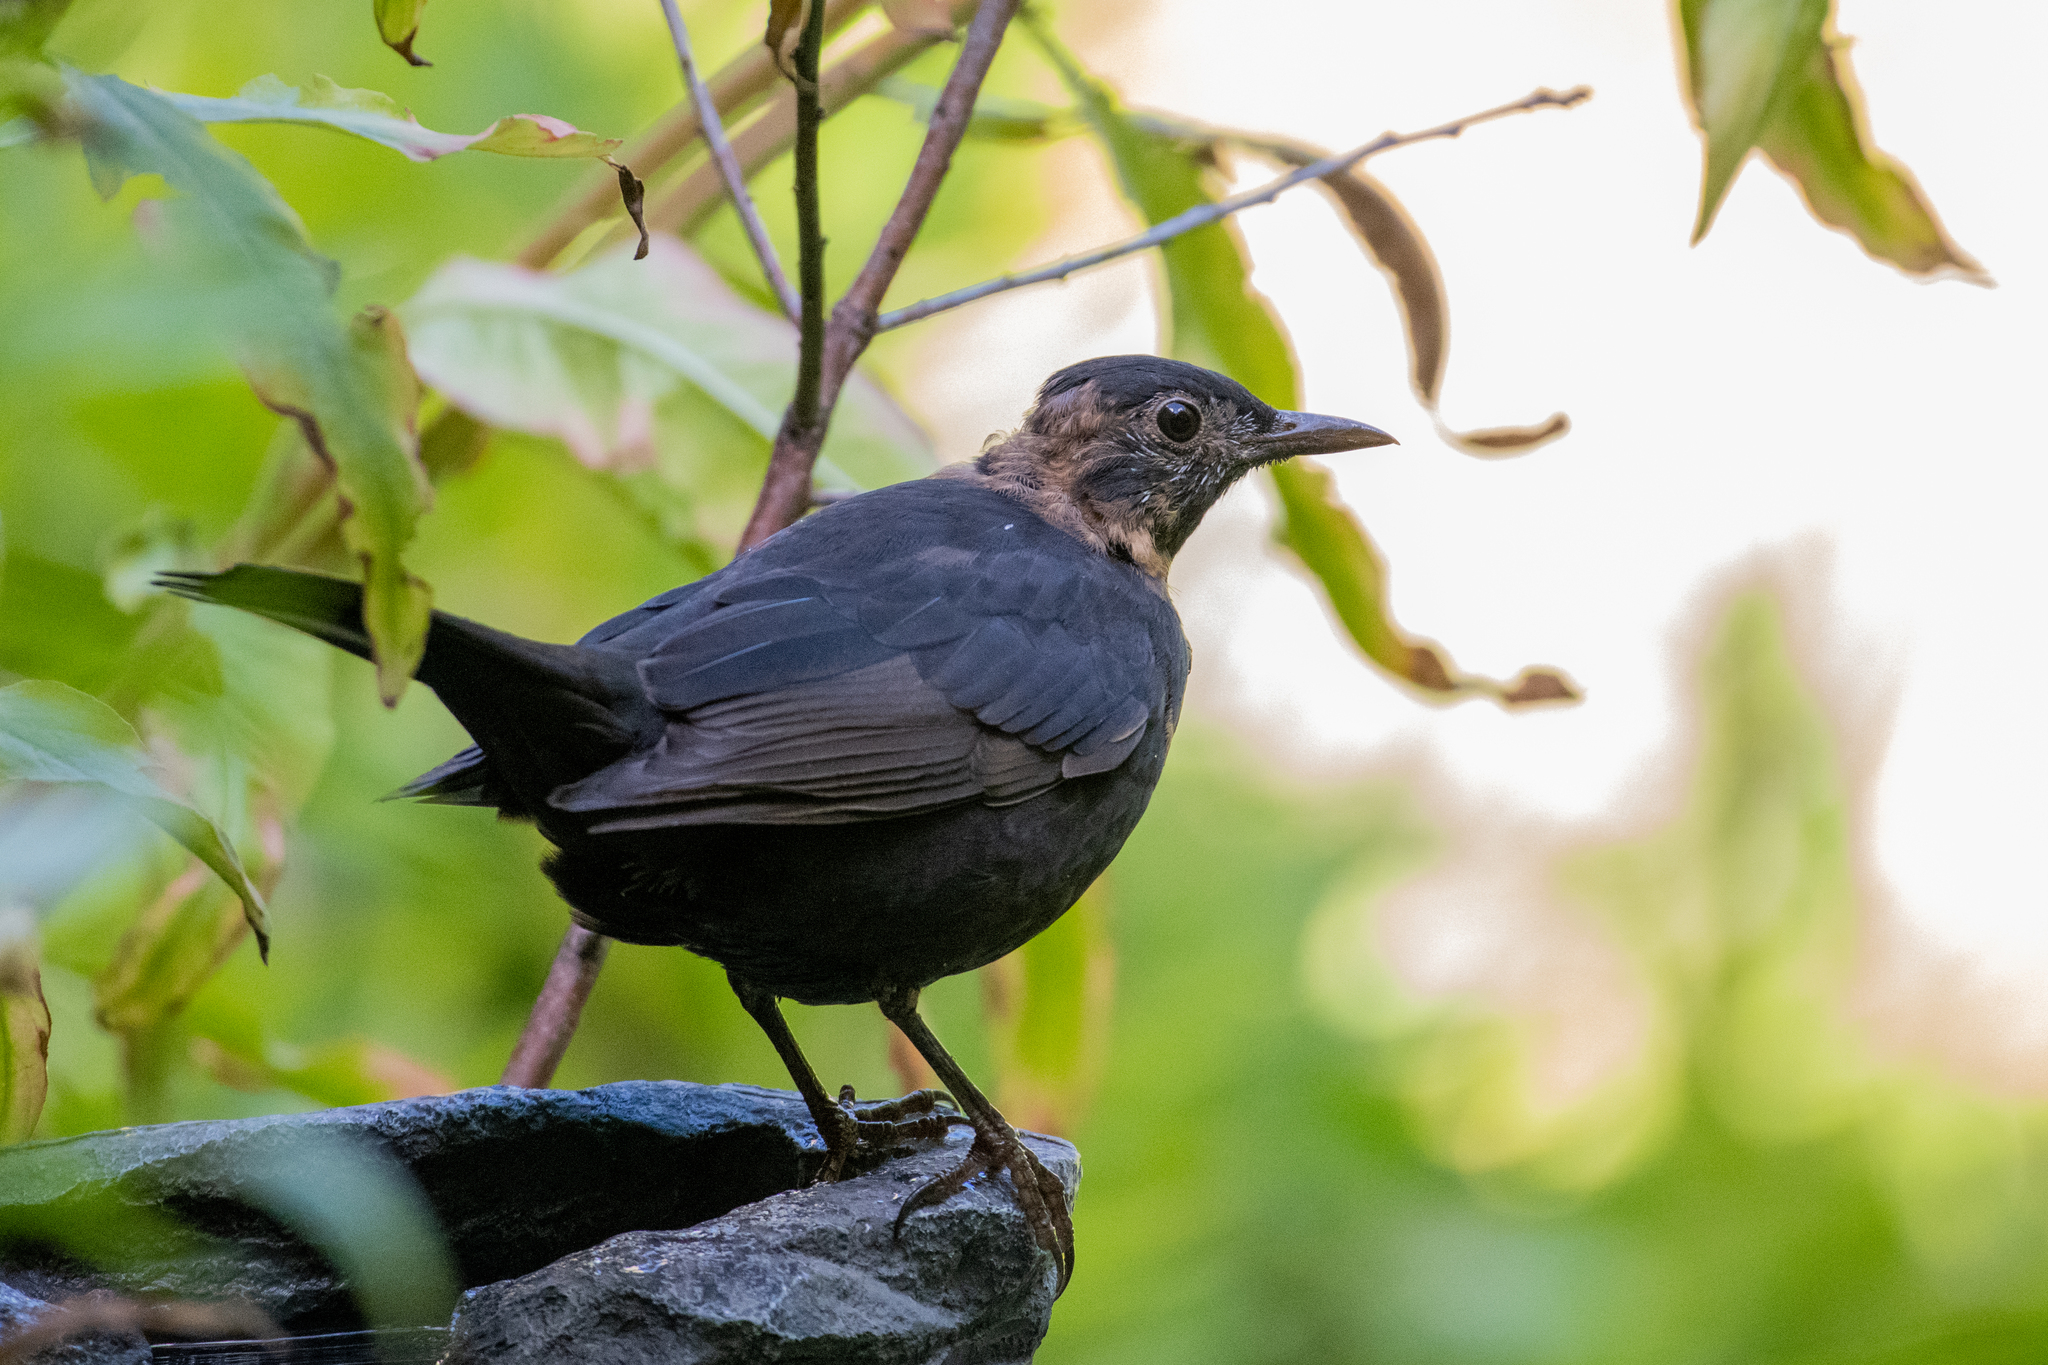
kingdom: Animalia
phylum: Chordata
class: Aves
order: Passeriformes
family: Turdidae
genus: Turdus
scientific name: Turdus merula
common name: Common blackbird
